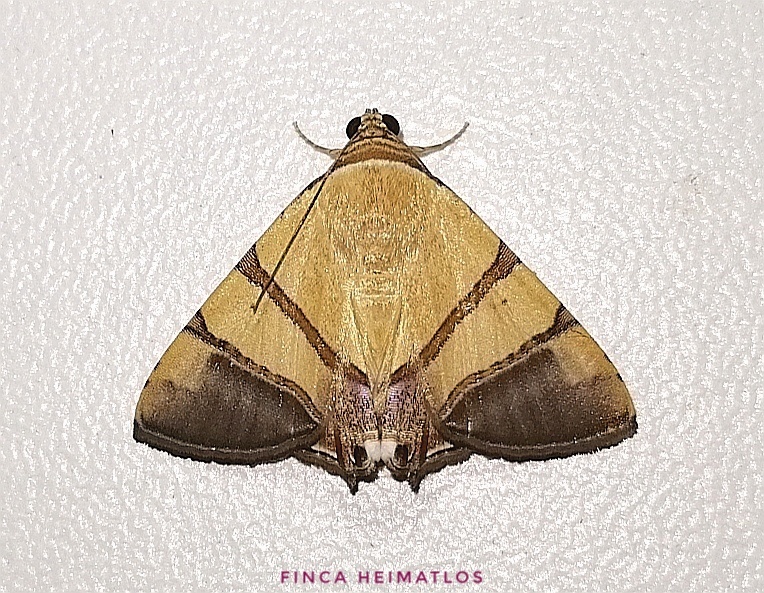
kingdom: Animalia
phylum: Arthropoda
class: Insecta
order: Lepidoptera
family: Erebidae
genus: Eulepidotis
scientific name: Eulepidotis juncida
